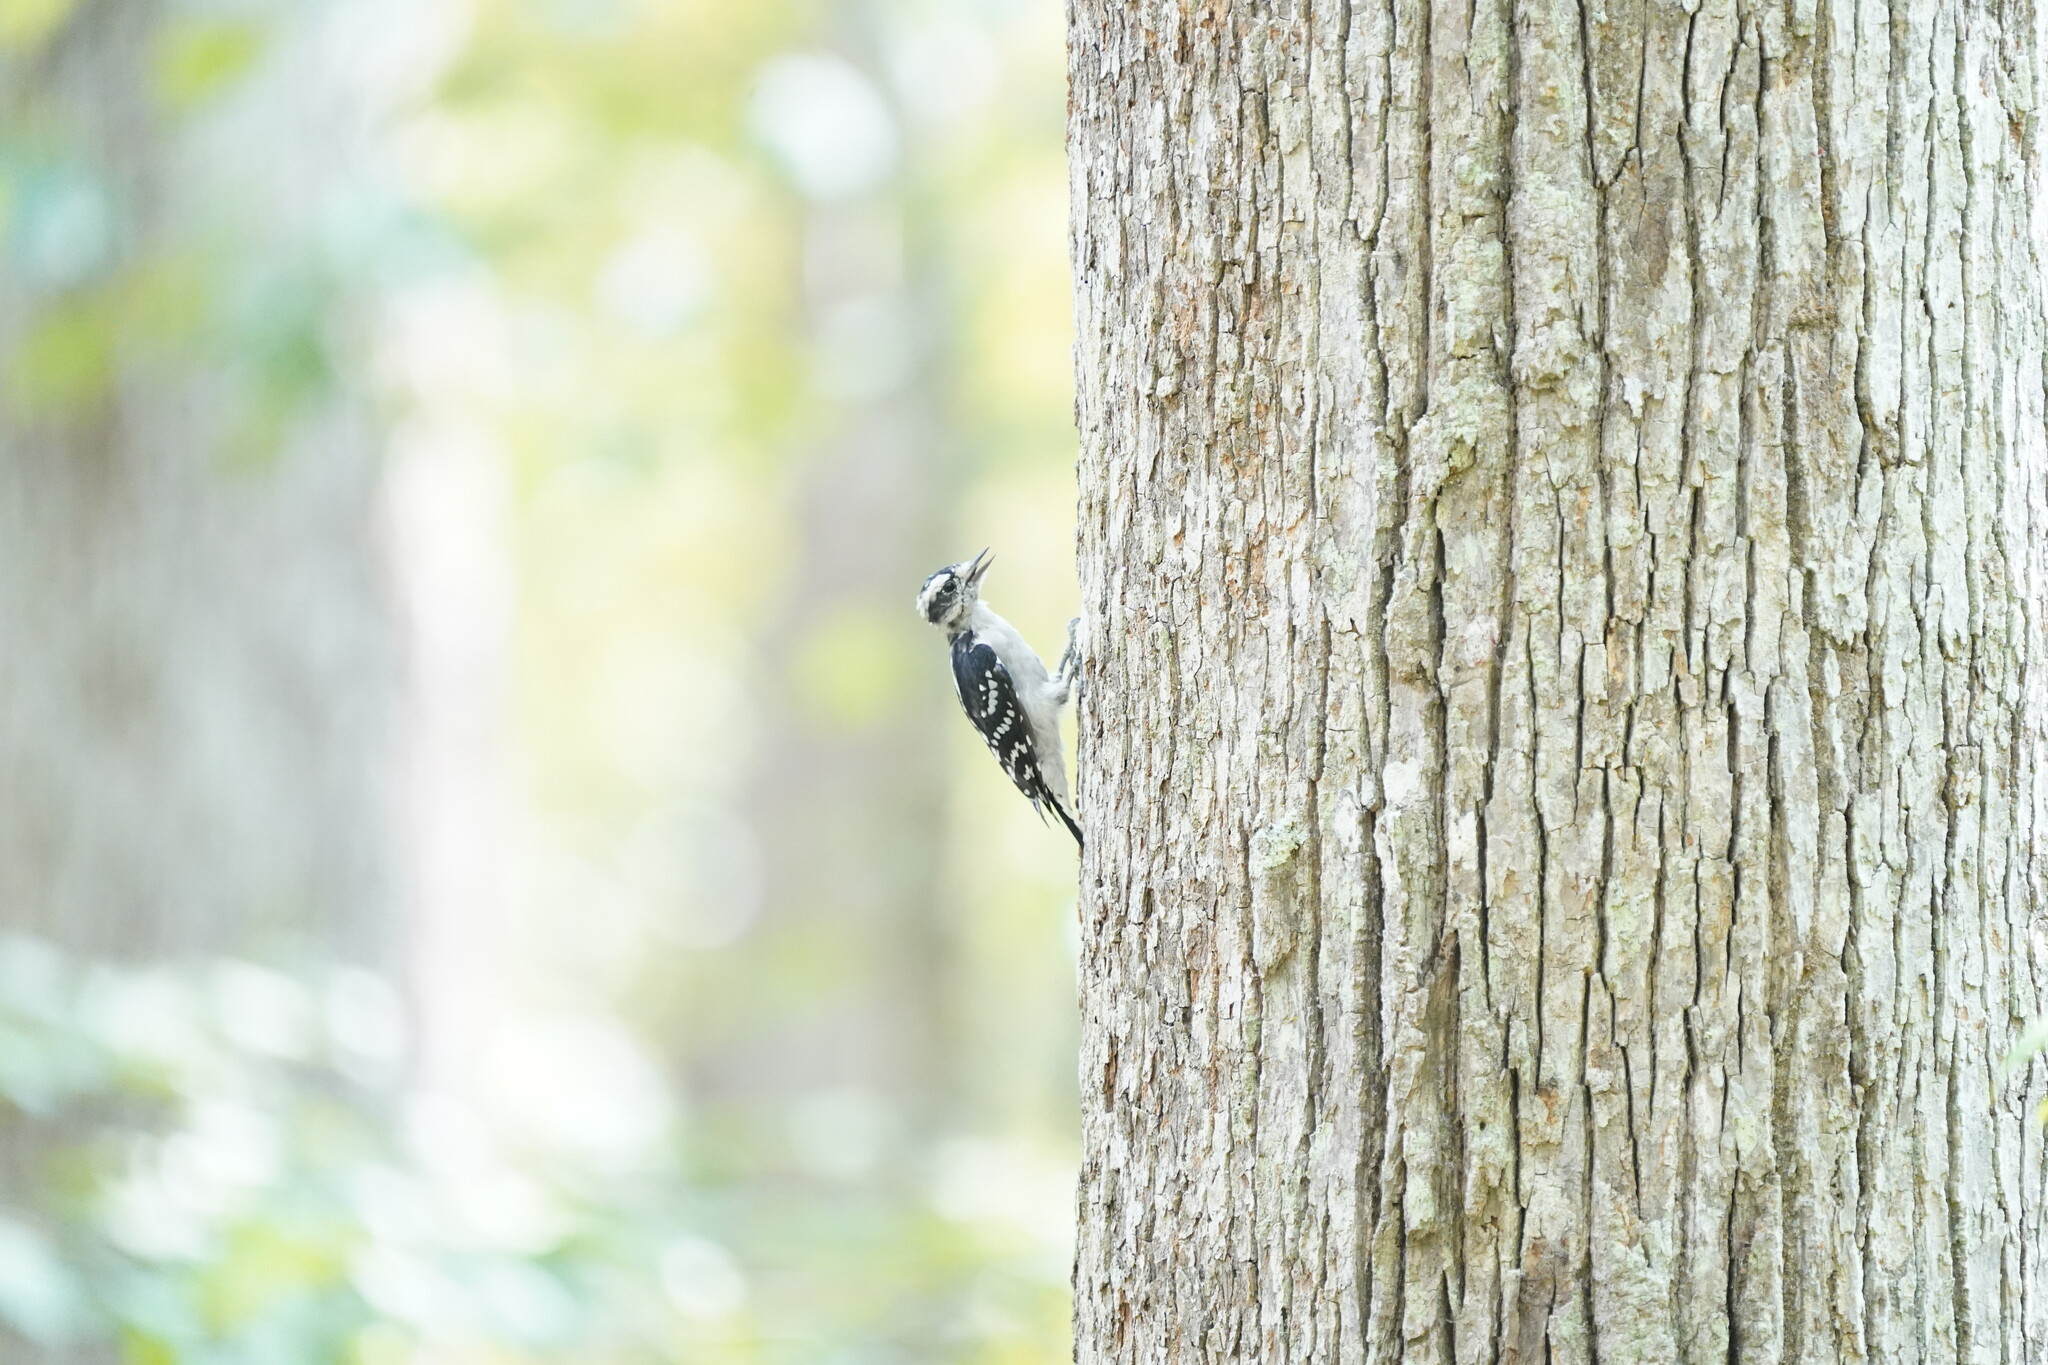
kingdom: Animalia
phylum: Chordata
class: Aves
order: Piciformes
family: Picidae
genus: Dryobates
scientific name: Dryobates pubescens
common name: Downy woodpecker
